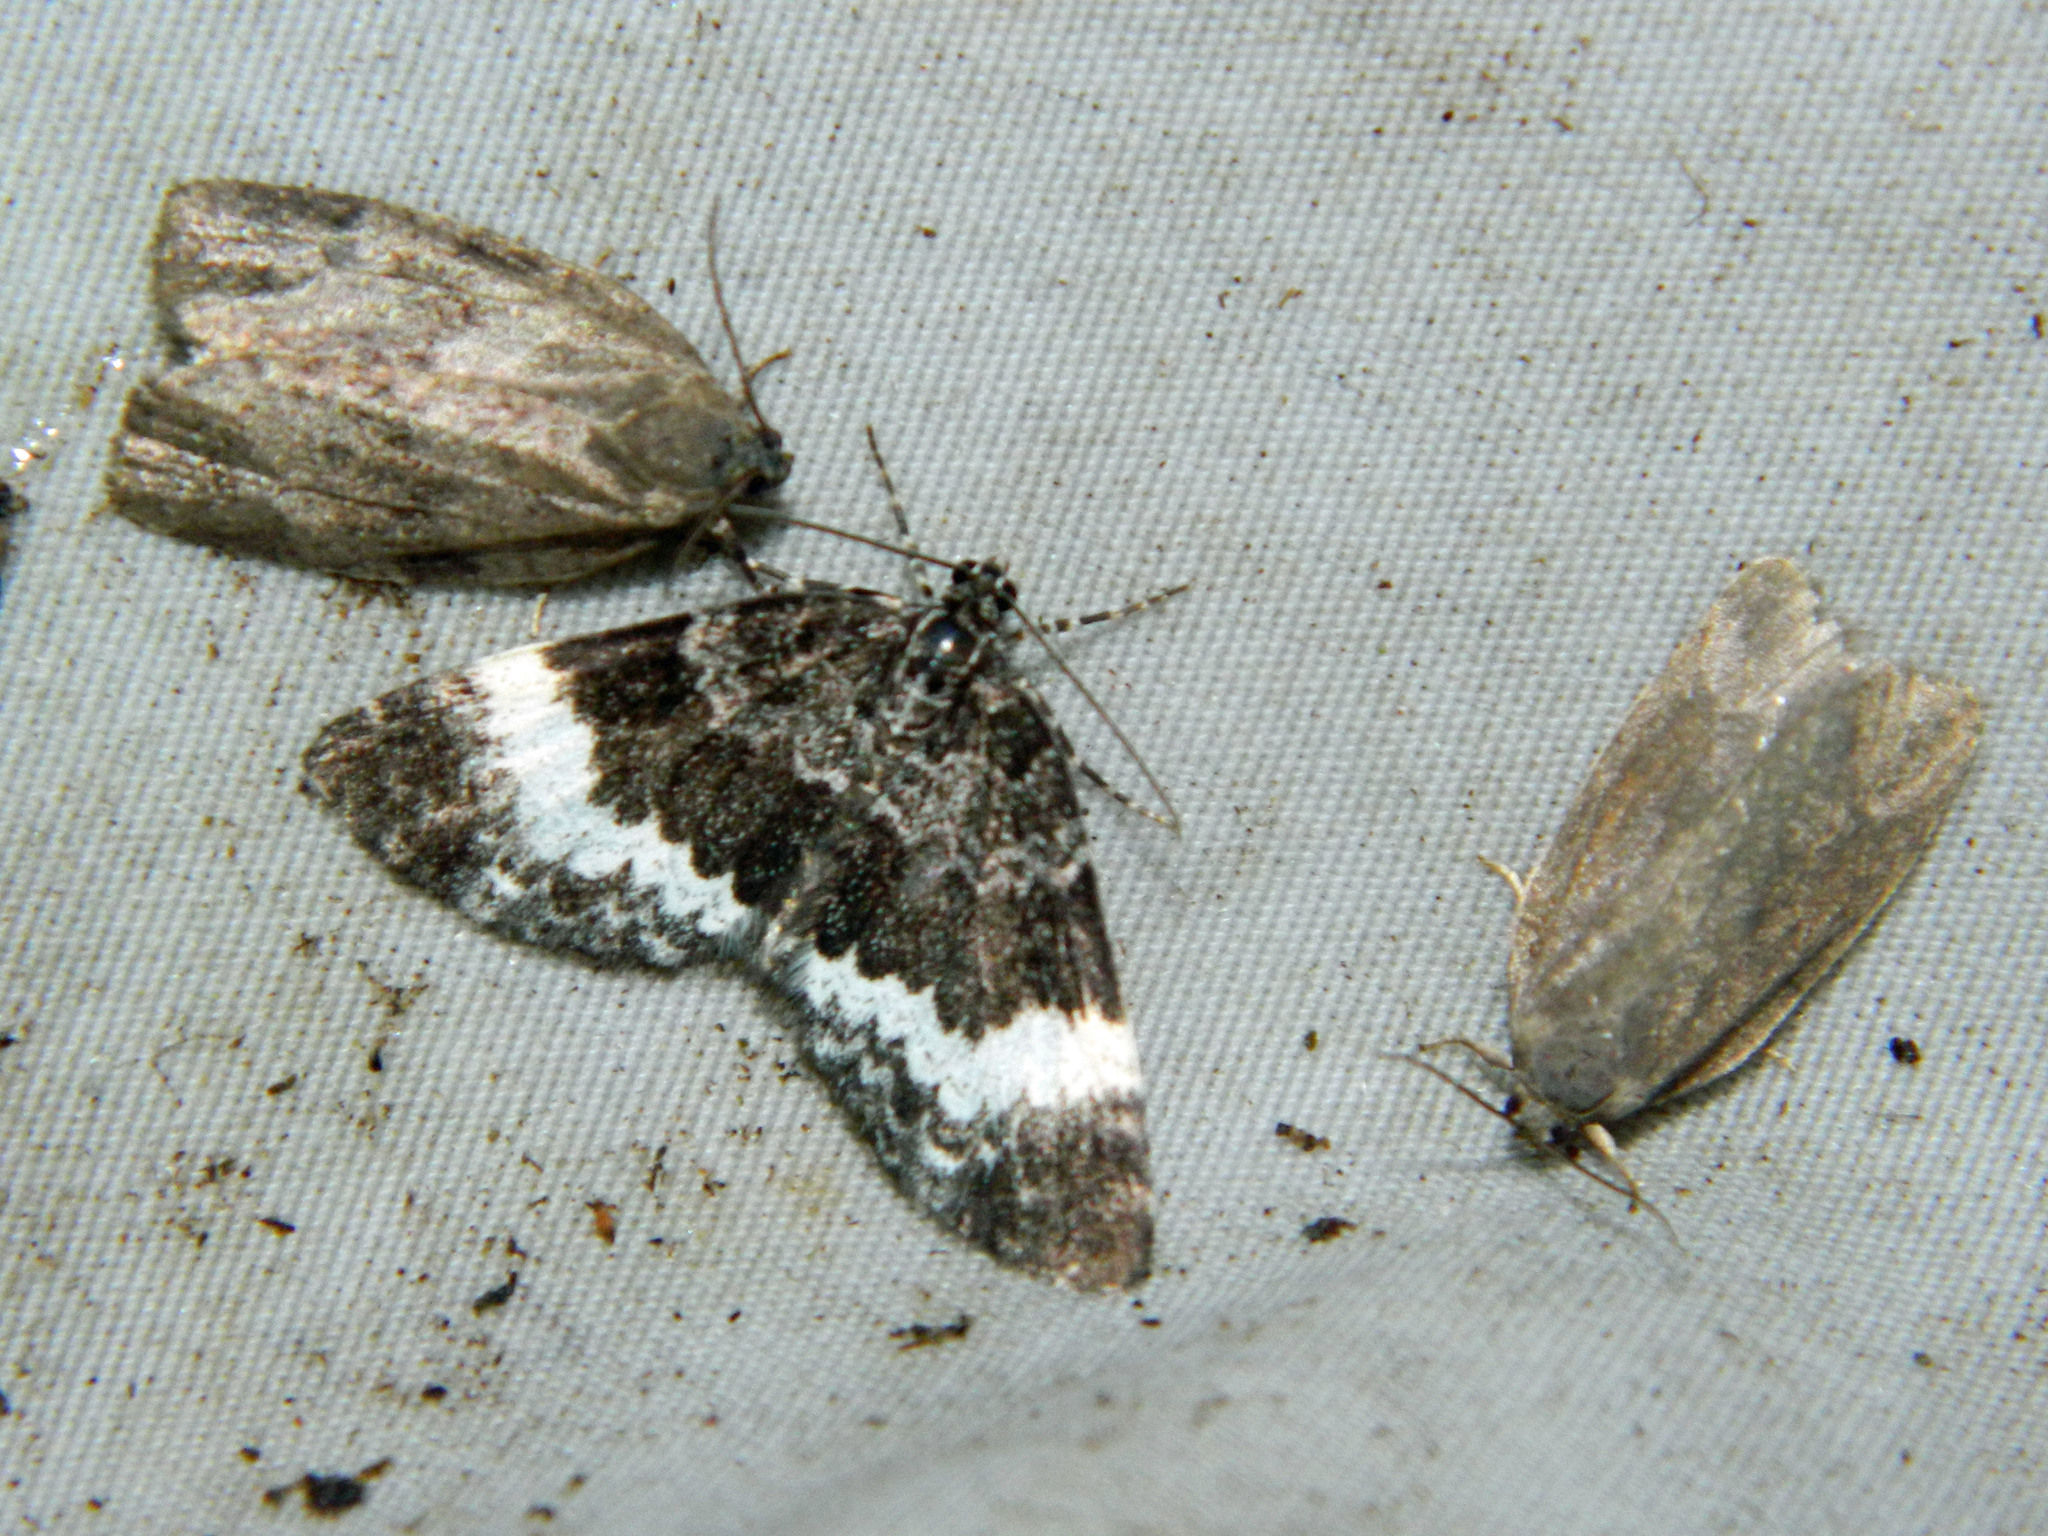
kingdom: Animalia
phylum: Arthropoda
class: Insecta
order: Lepidoptera
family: Geometridae
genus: Spargania
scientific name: Spargania luctuata
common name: White-banded carpet
